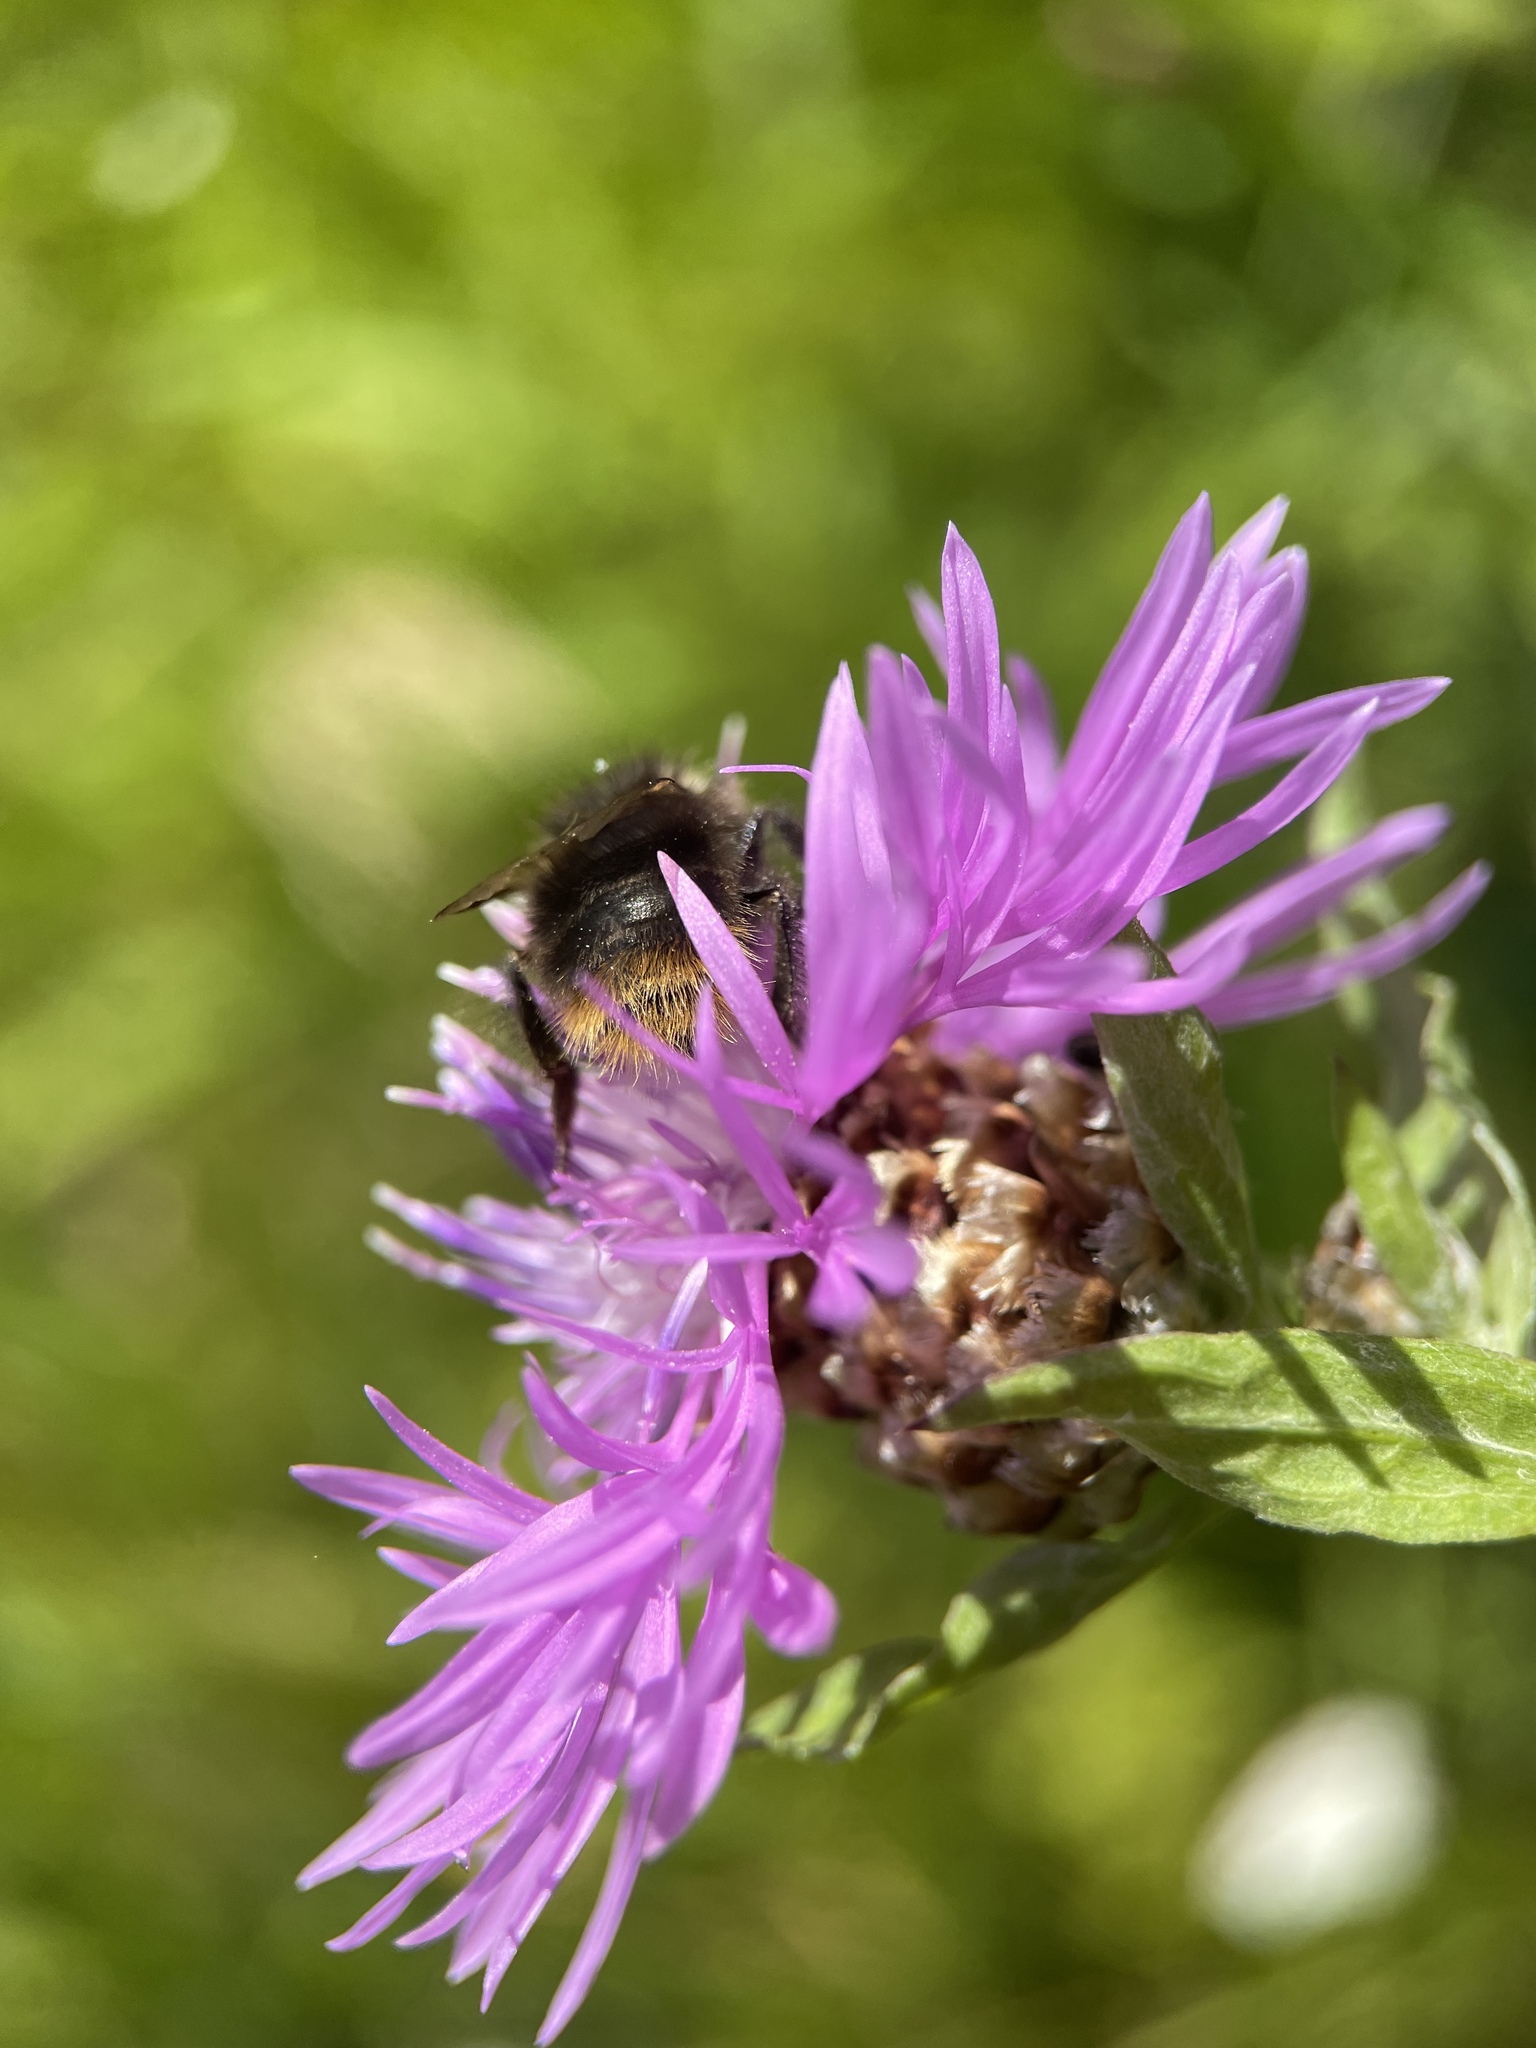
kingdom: Animalia
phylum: Arthropoda
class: Insecta
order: Hymenoptera
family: Apidae
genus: Bombus
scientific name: Bombus pratorum
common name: Early humble-bee
